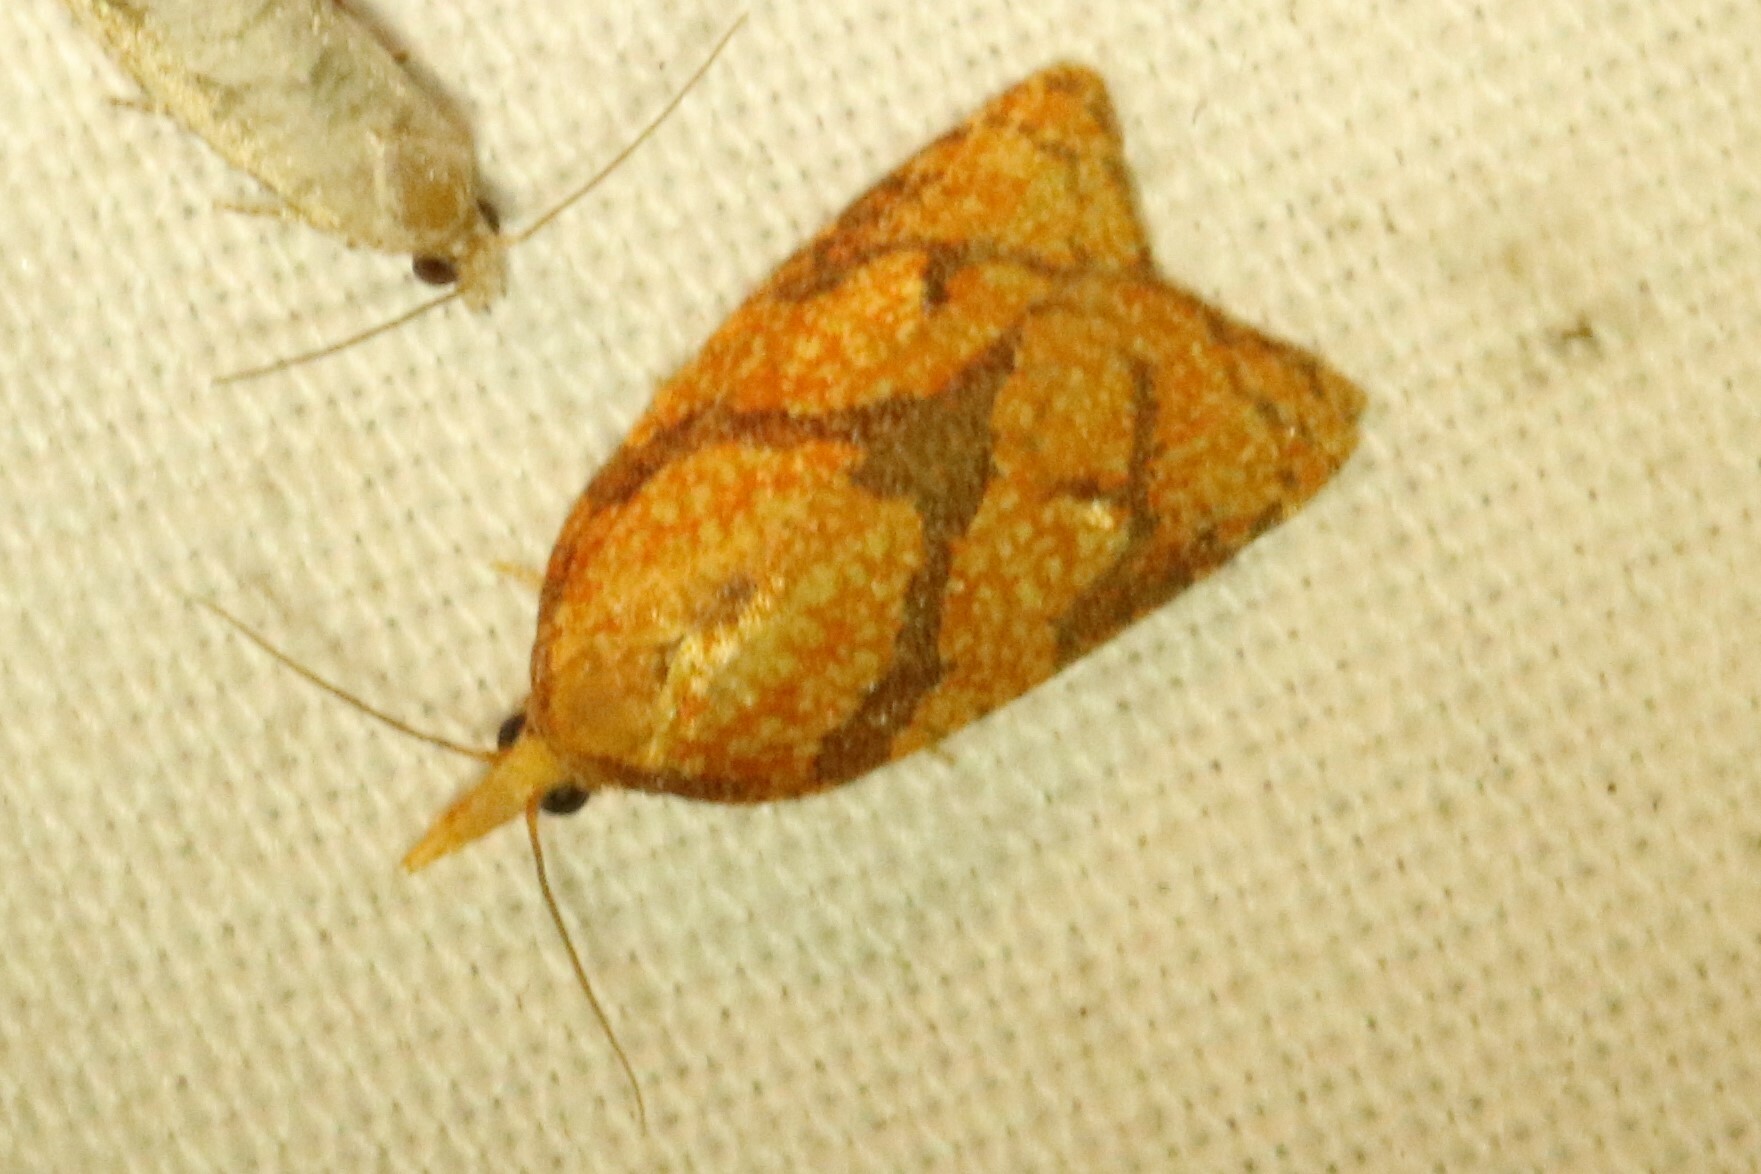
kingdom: Animalia
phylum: Arthropoda
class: Insecta
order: Lepidoptera
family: Tortricidae
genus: Cenopis
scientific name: Cenopis reticulatana
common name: Reticulated fruitworm moth
